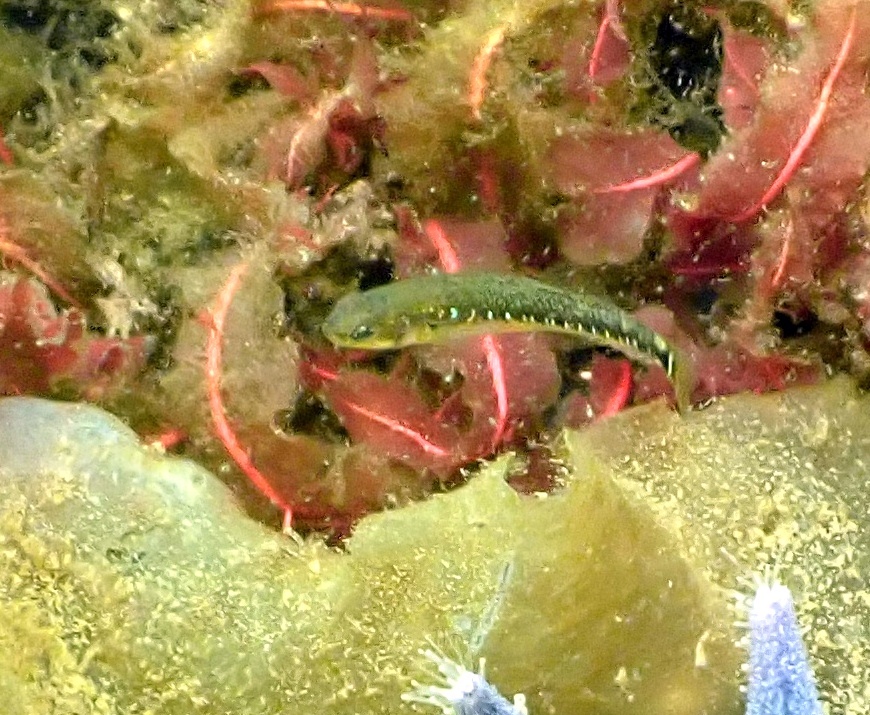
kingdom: Animalia
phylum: Chordata
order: Perciformes
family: Gobiidae
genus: Gobiusculus
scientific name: Gobiusculus flavescens
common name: Two-spotted goby
